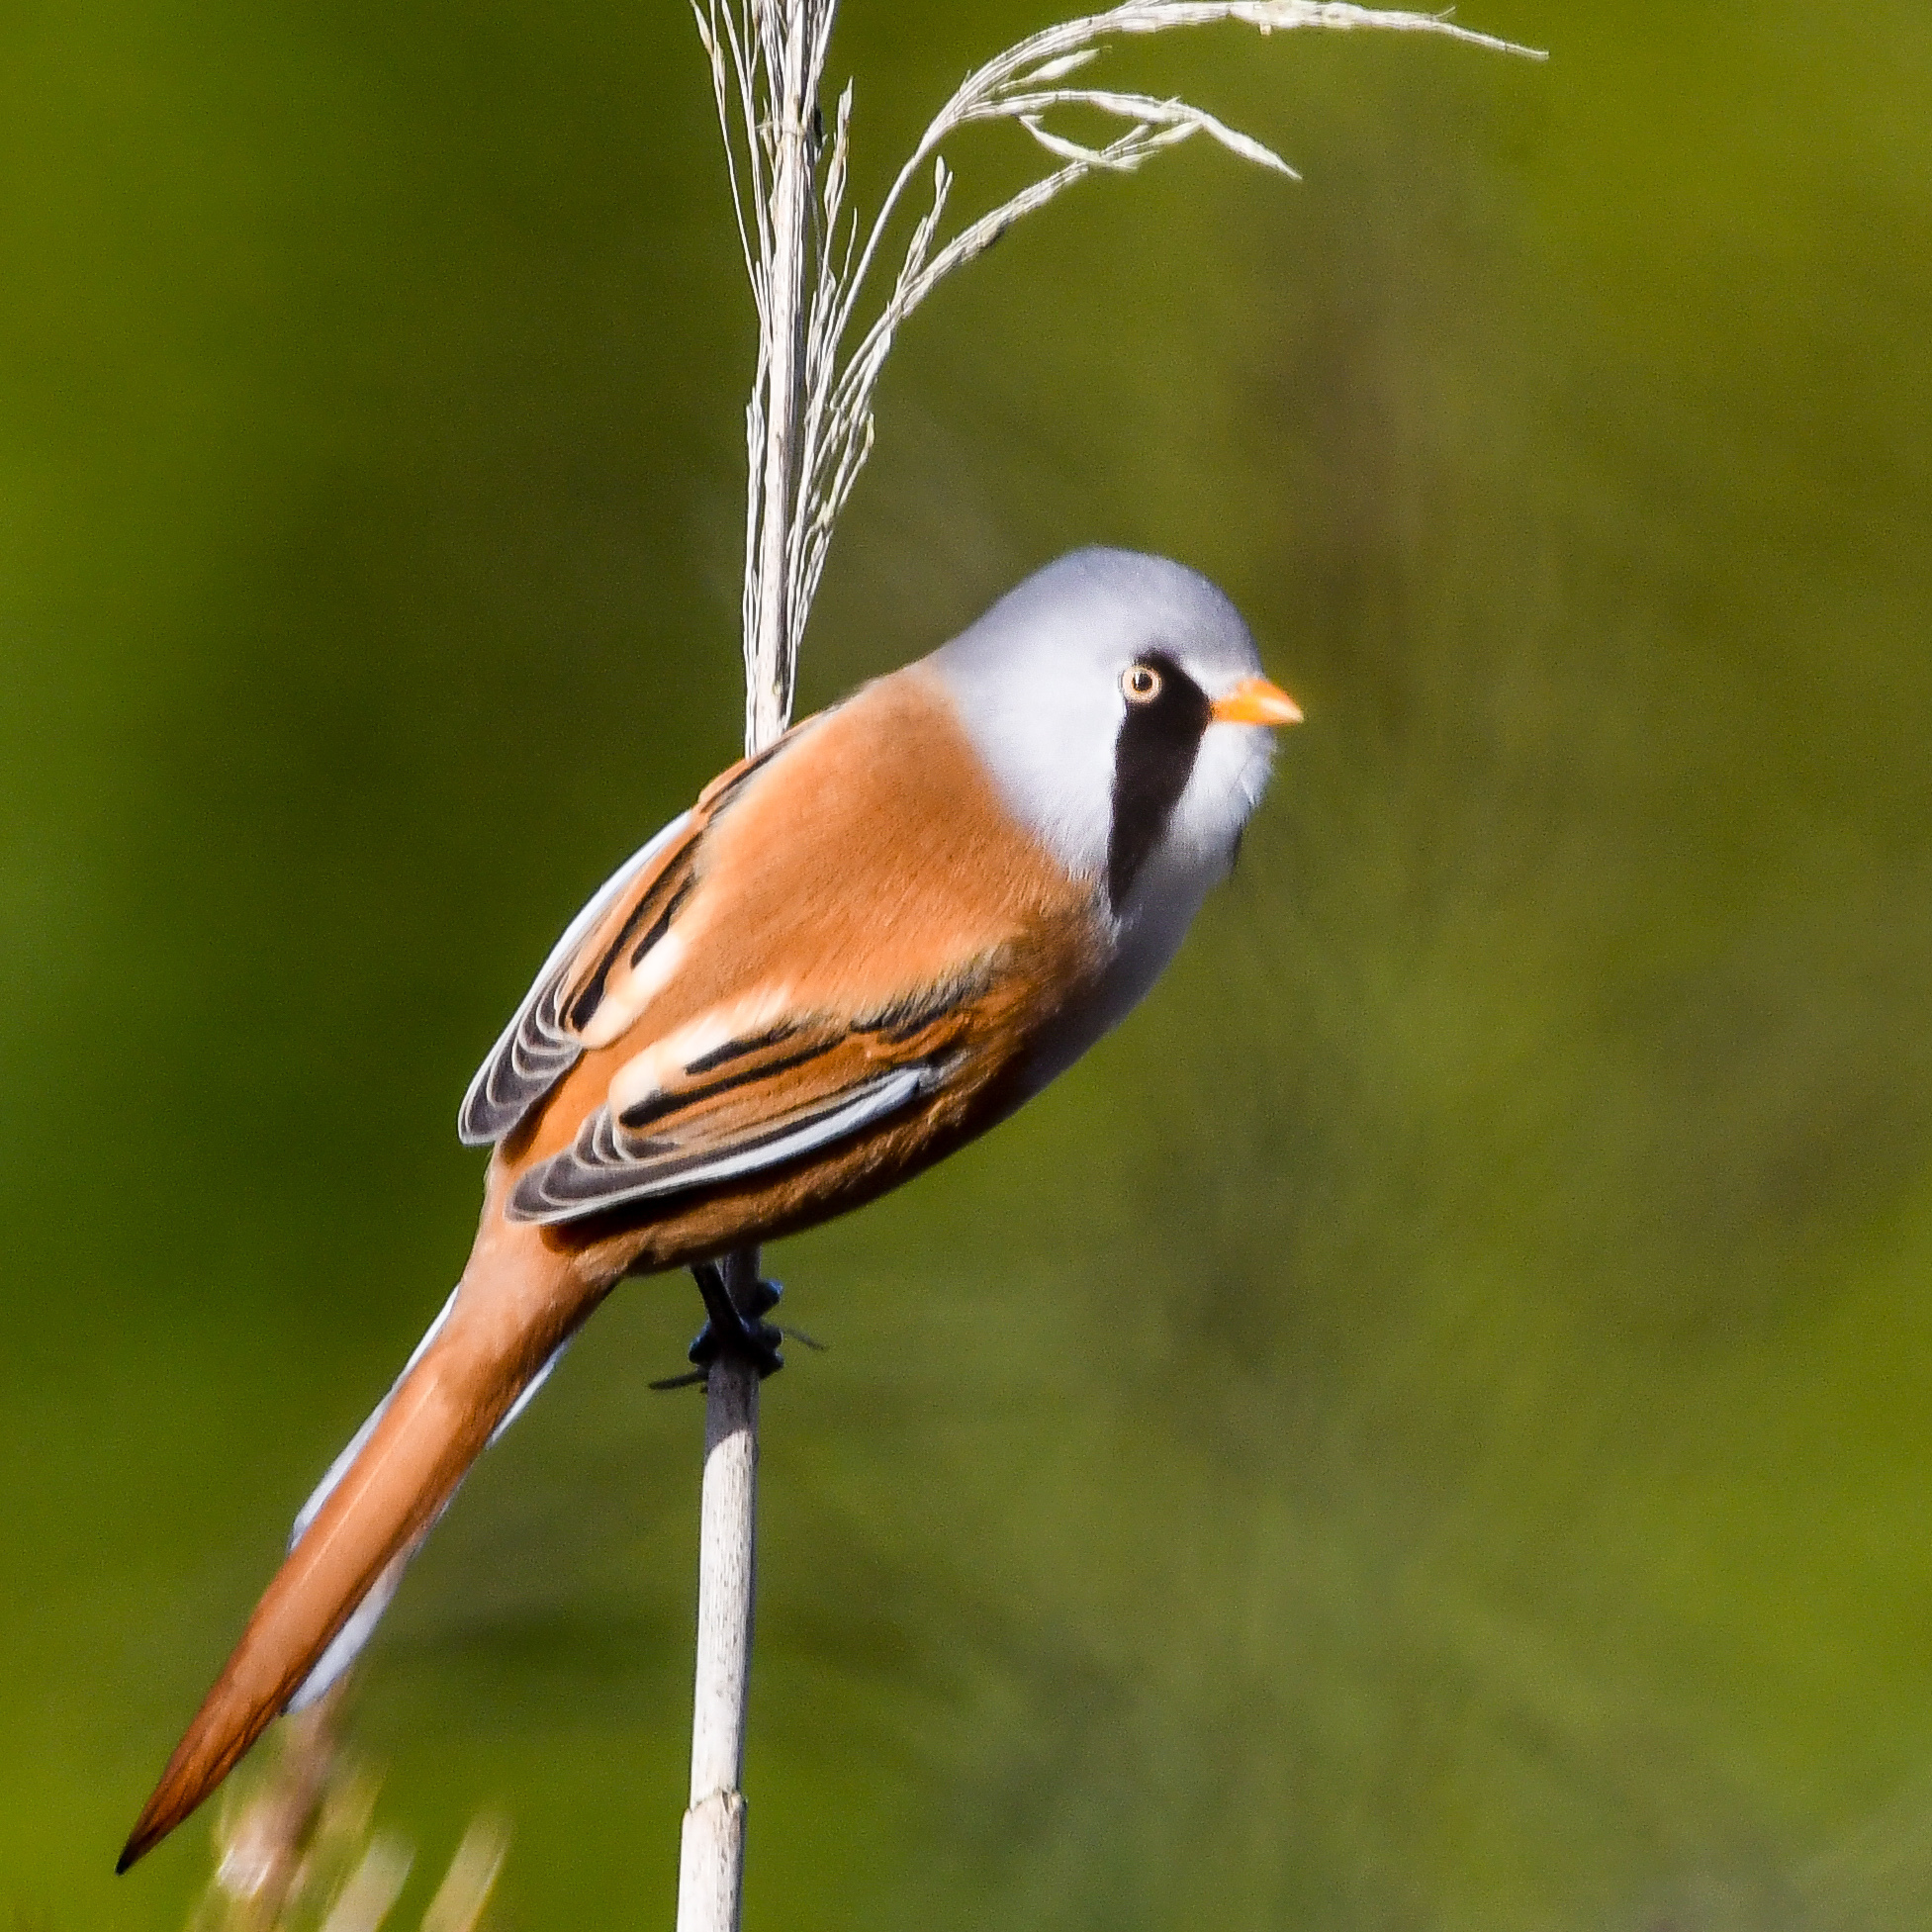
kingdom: Animalia
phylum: Chordata
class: Aves
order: Passeriformes
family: Panuridae
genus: Panurus
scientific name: Panurus biarmicus
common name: Bearded reedling
